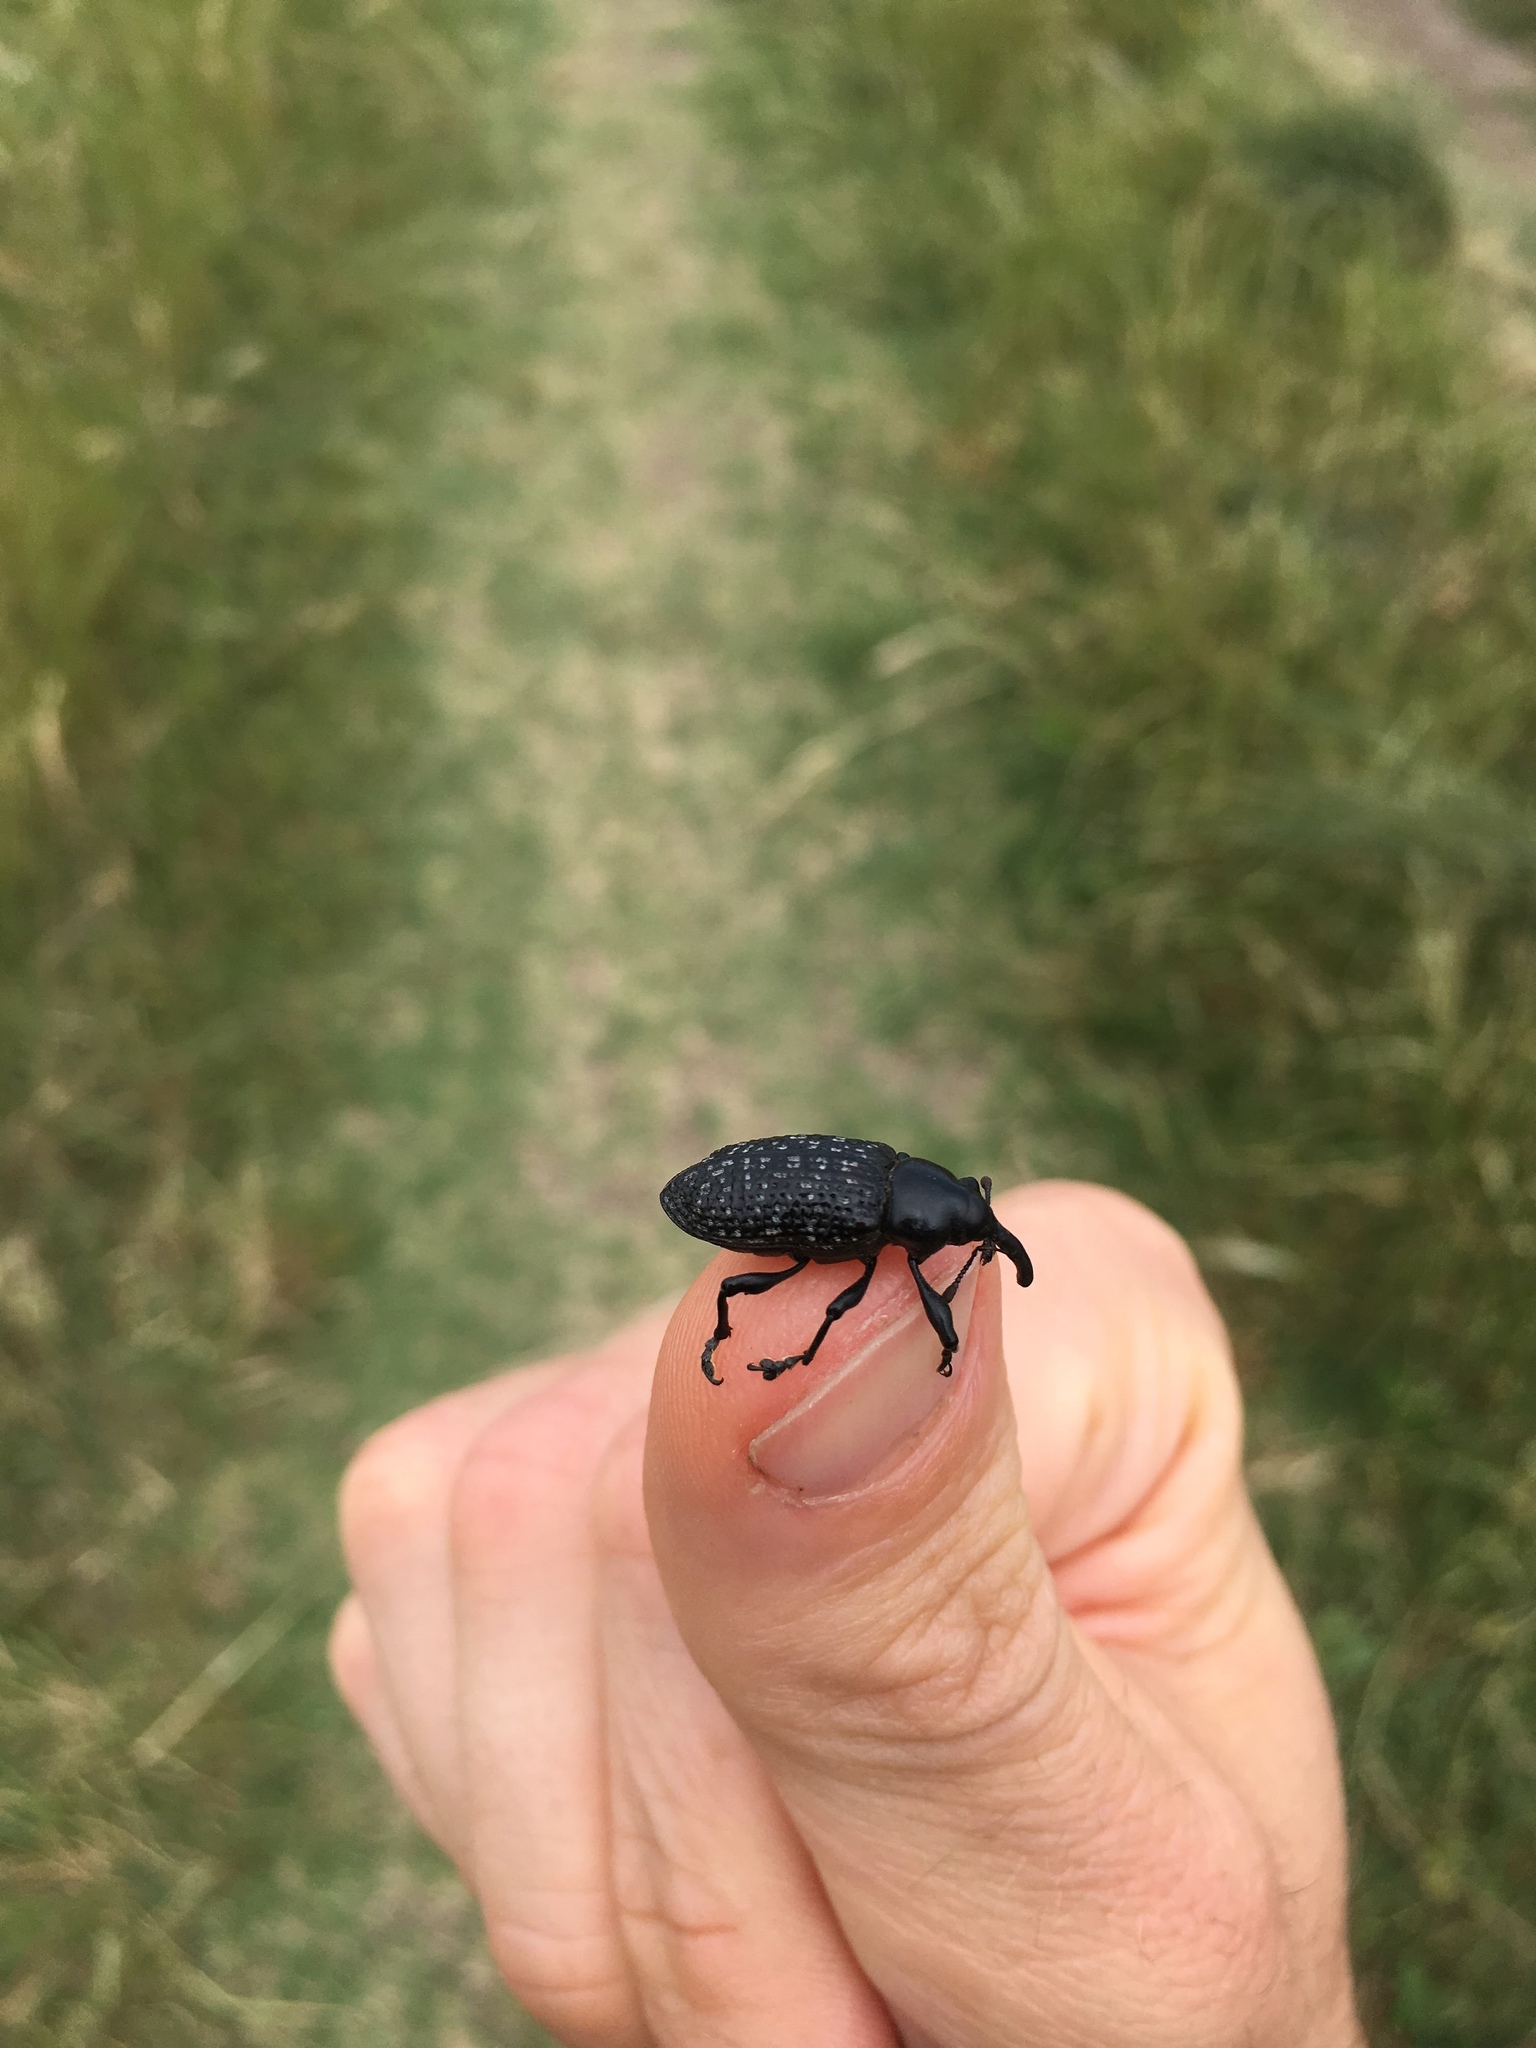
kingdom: Animalia
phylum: Arthropoda
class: Insecta
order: Coleoptera
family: Curculionidae
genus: Heilipodus
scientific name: Heilipodus scabripennis
